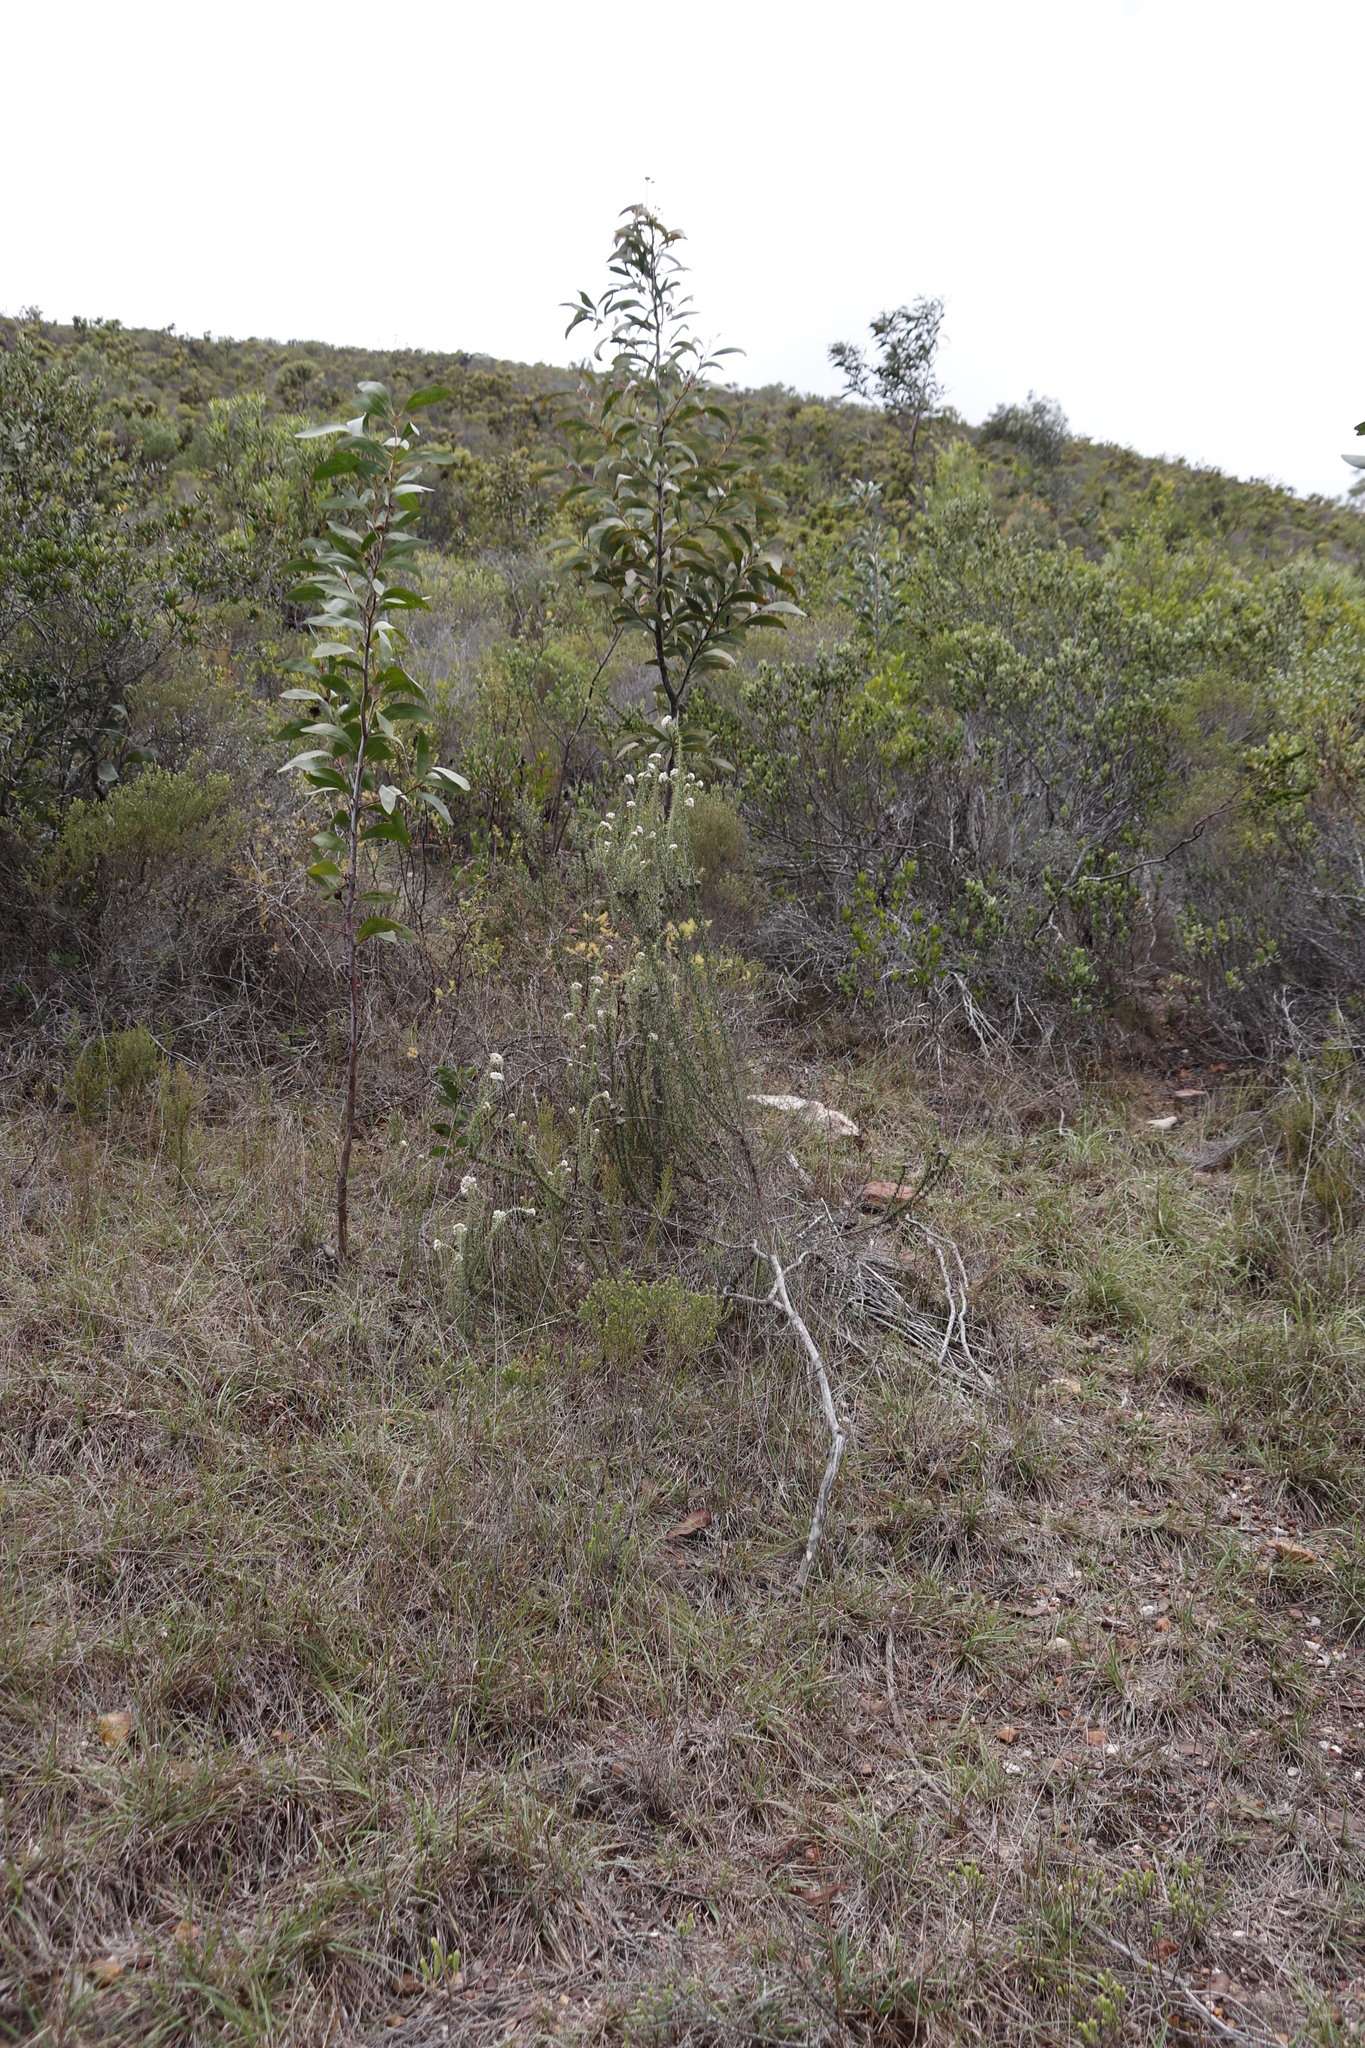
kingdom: Plantae
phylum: Tracheophyta
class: Magnoliopsida
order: Asterales
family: Asteraceae
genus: Metalasia
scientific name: Metalasia acuta
